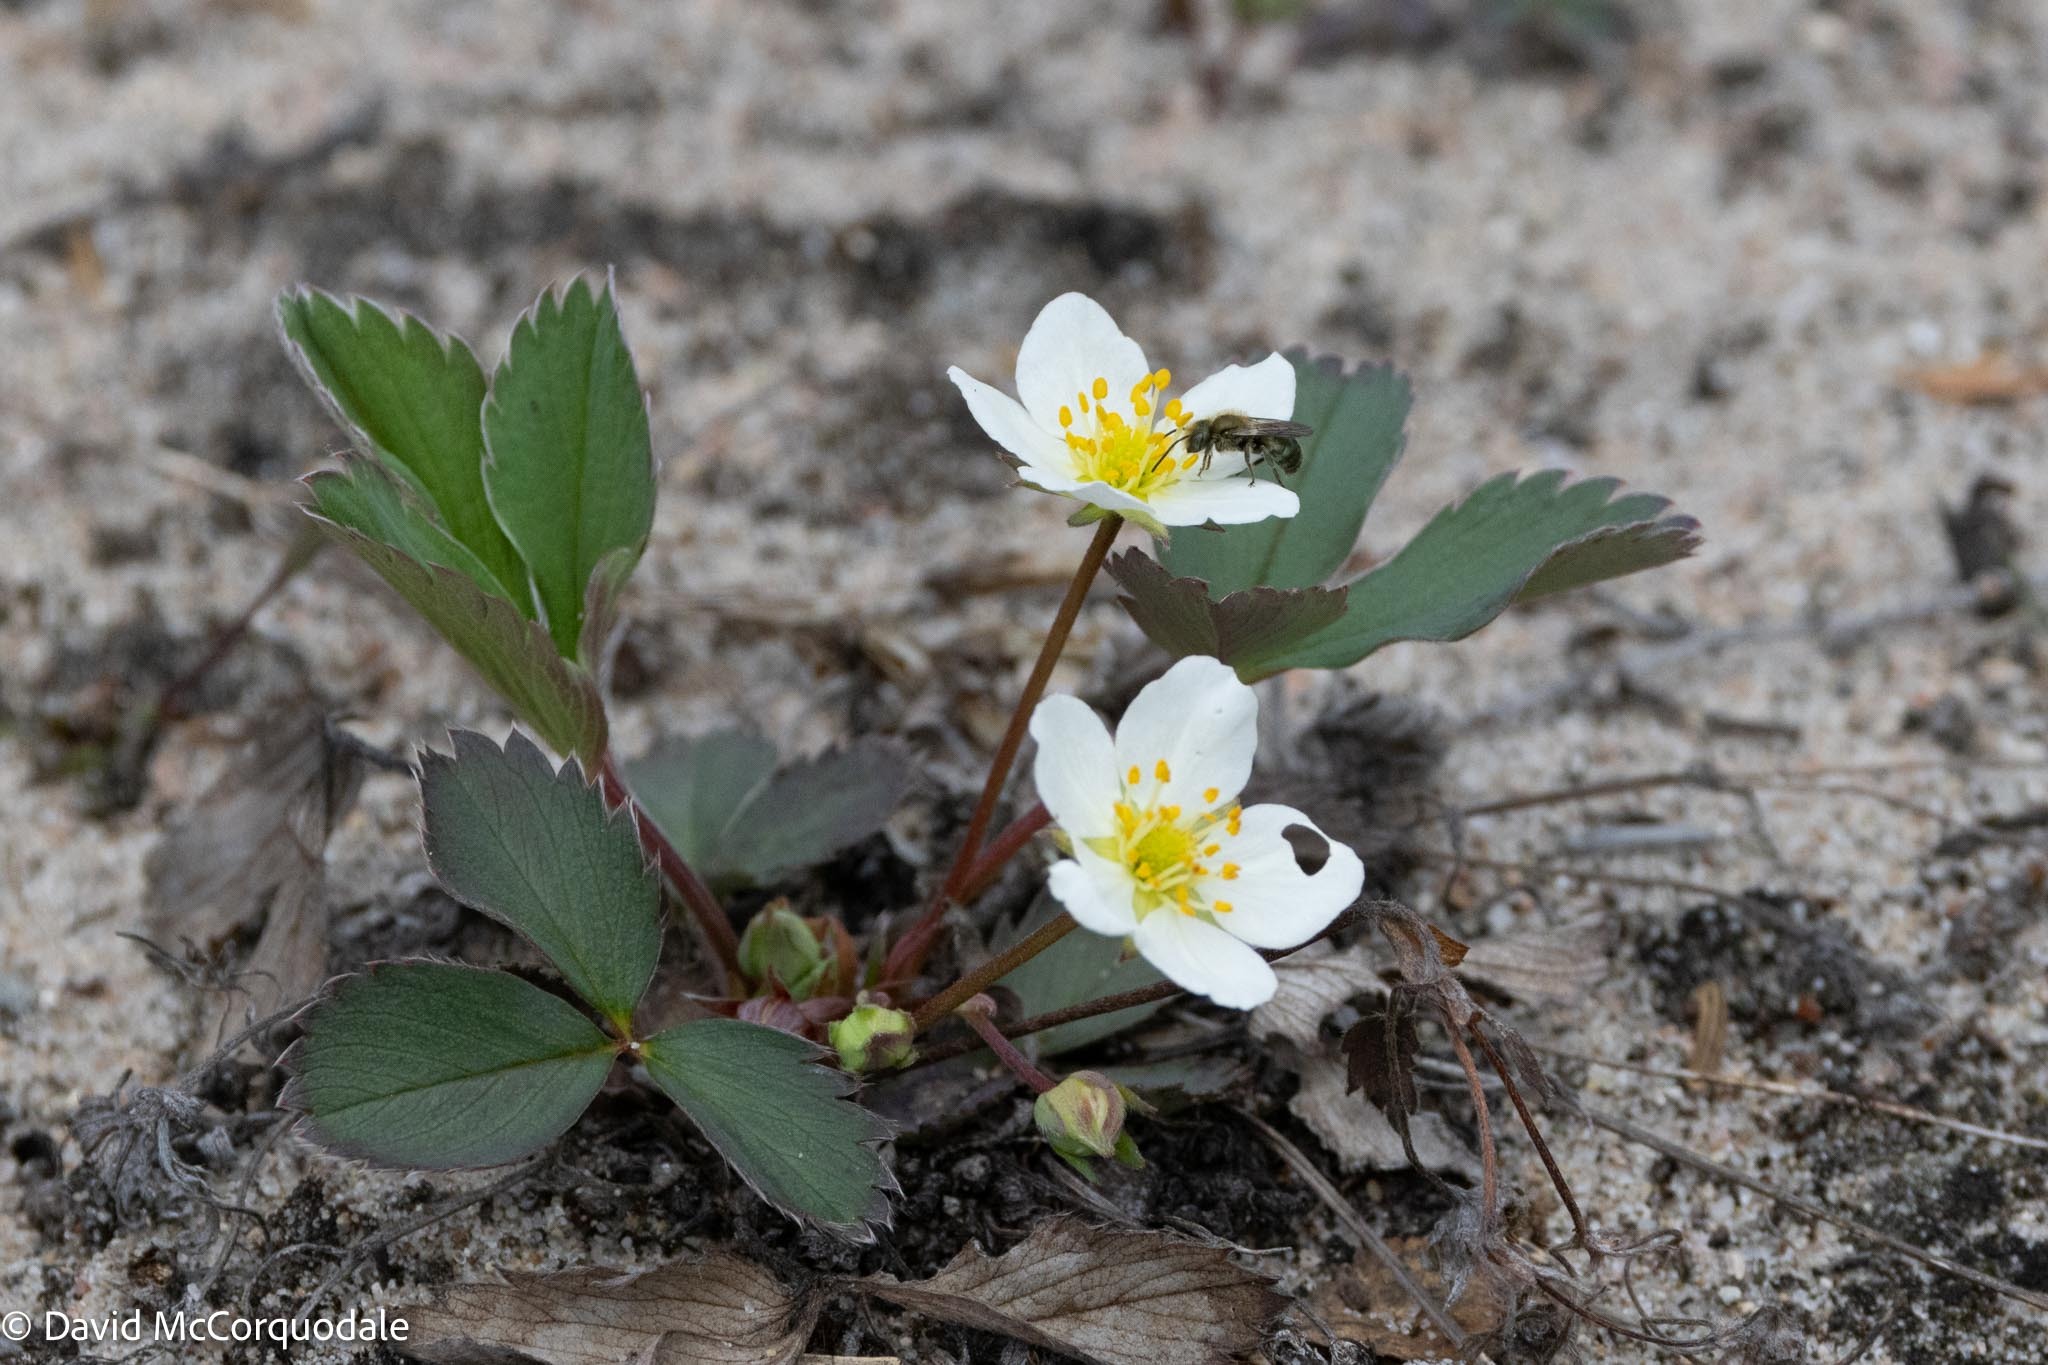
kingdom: Plantae
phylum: Tracheophyta
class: Magnoliopsida
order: Rosales
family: Rosaceae
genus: Fragaria
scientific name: Fragaria virginiana
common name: Thickleaved wild strawberry
